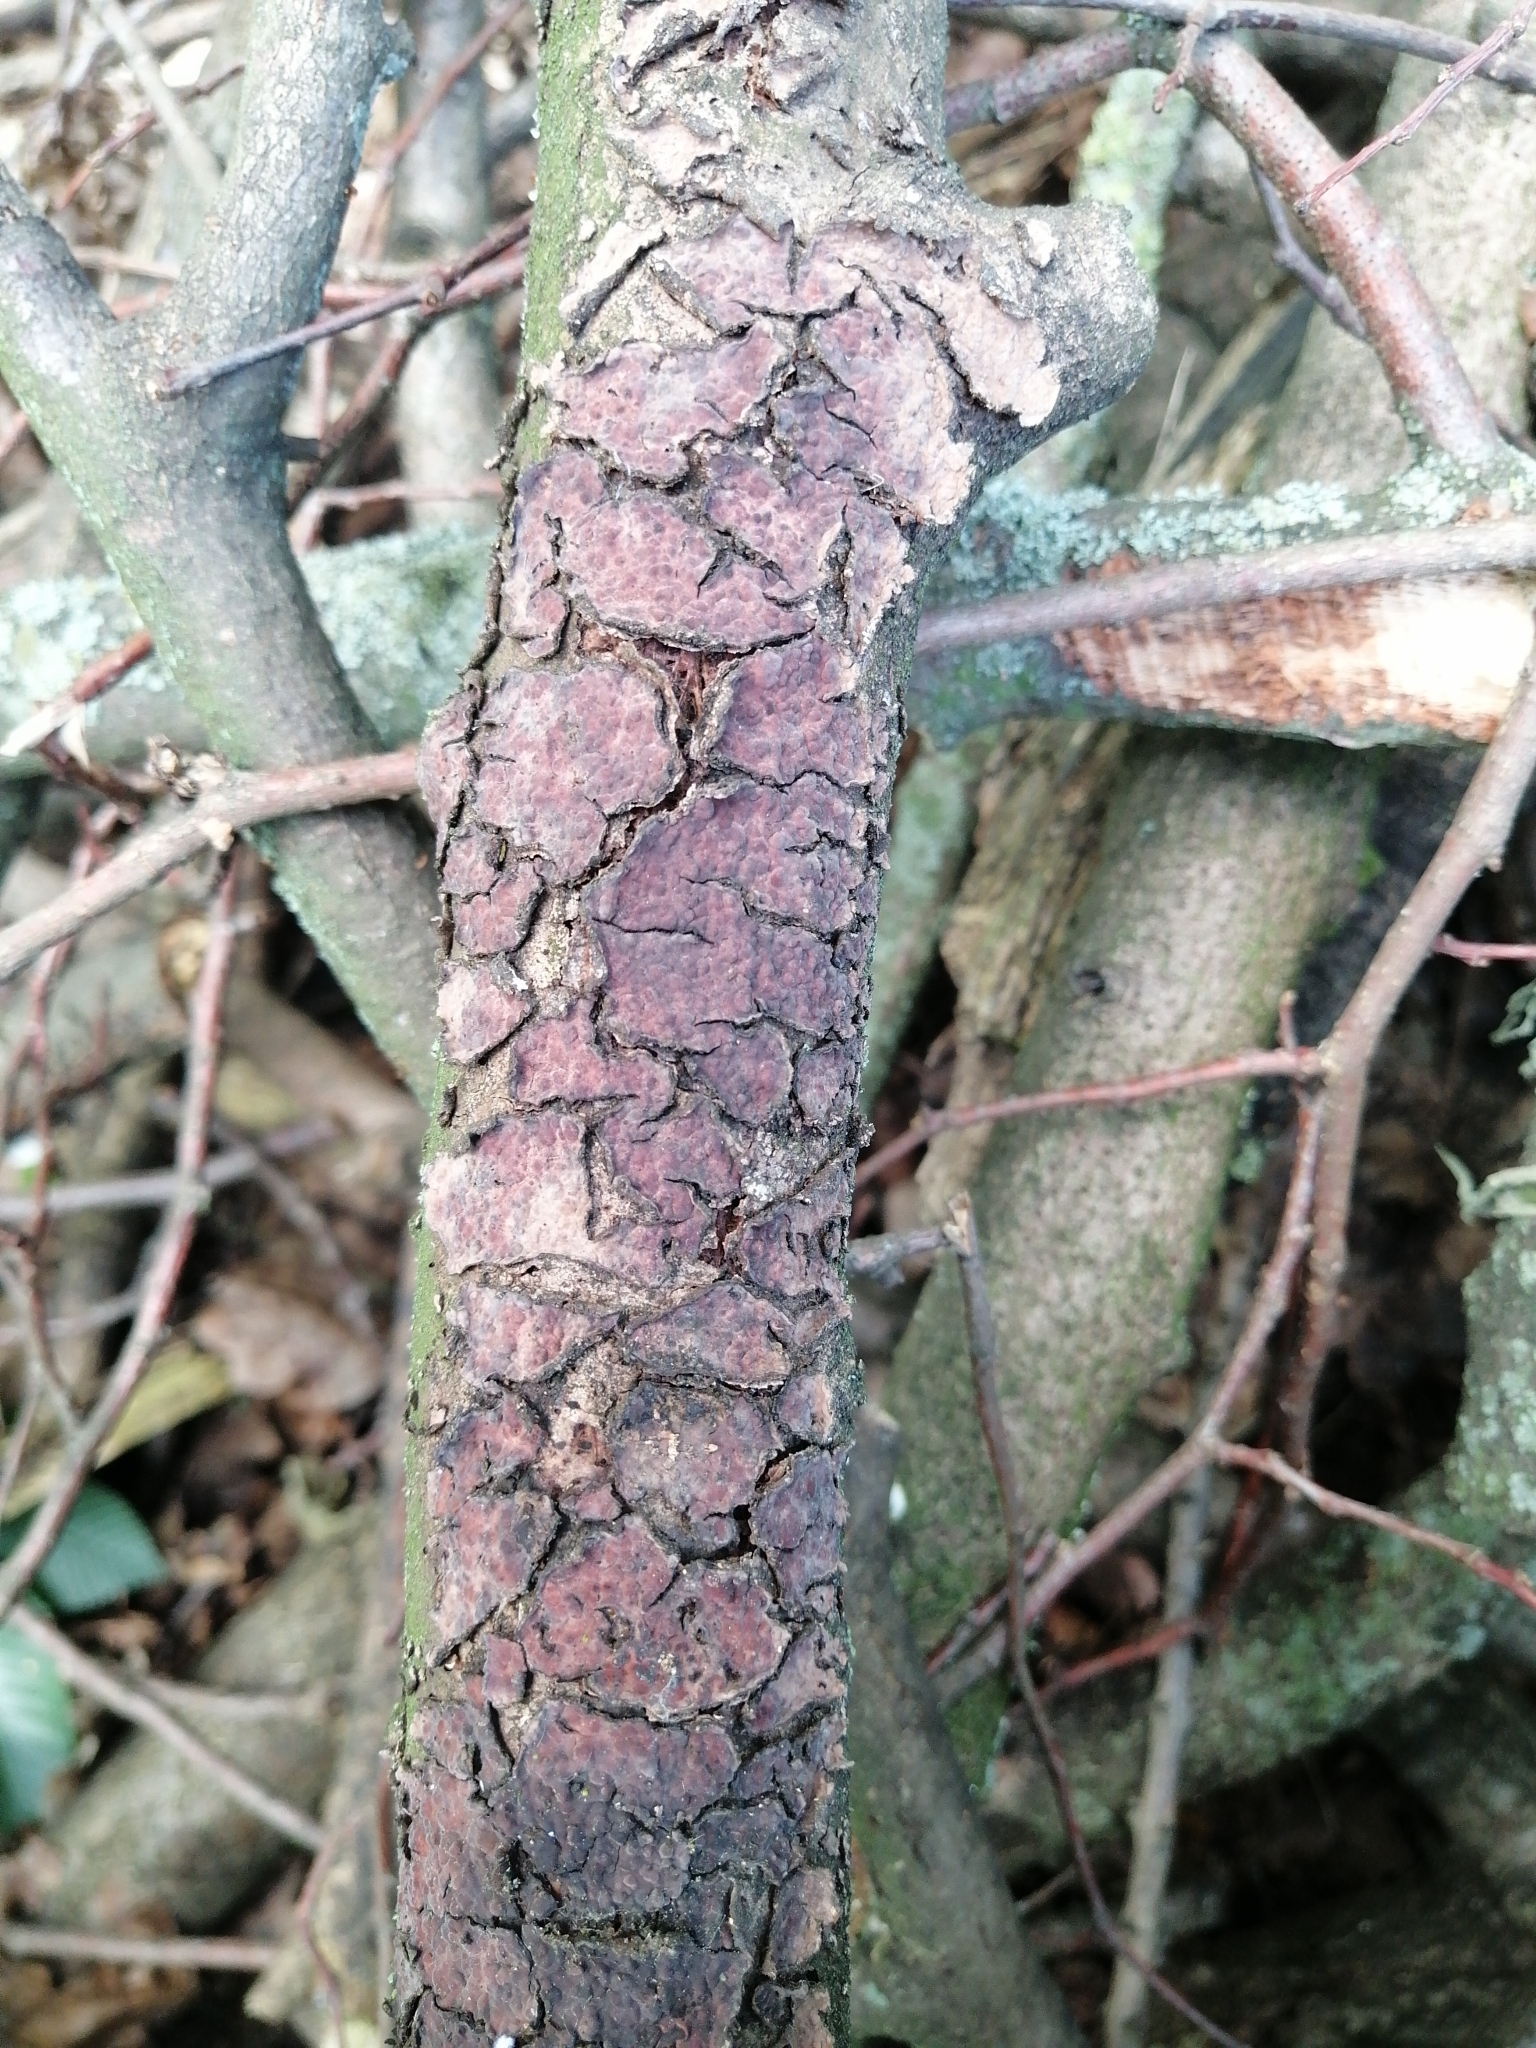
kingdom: Fungi
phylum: Basidiomycota
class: Agaricomycetes
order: Russulales
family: Peniophoraceae
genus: Peniophora
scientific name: Peniophora quercina
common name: Oak crust
